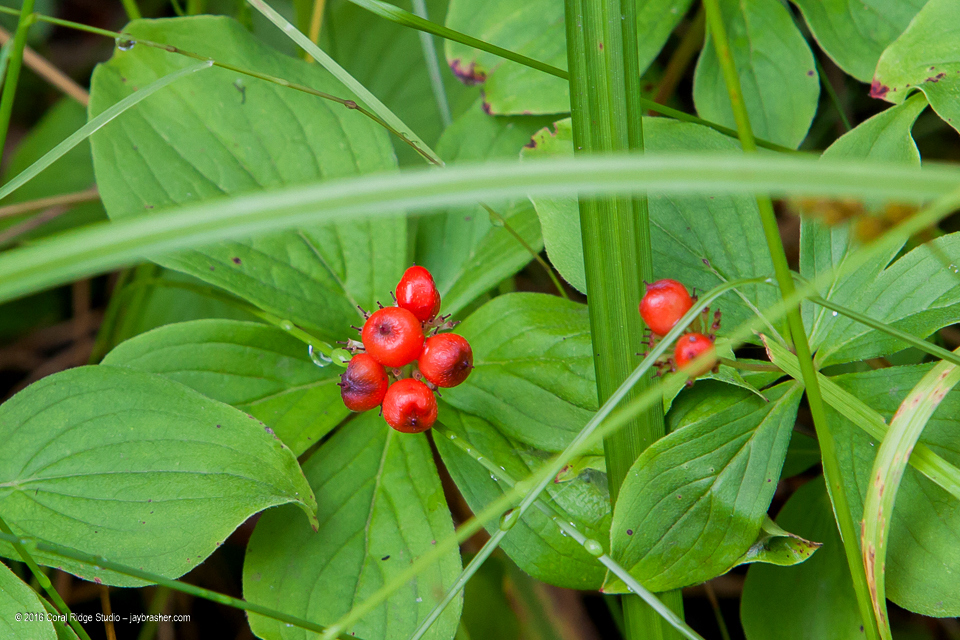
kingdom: Plantae
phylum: Tracheophyta
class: Magnoliopsida
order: Cornales
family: Cornaceae
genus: Cornus
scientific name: Cornus canadensis
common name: Creeping dogwood
